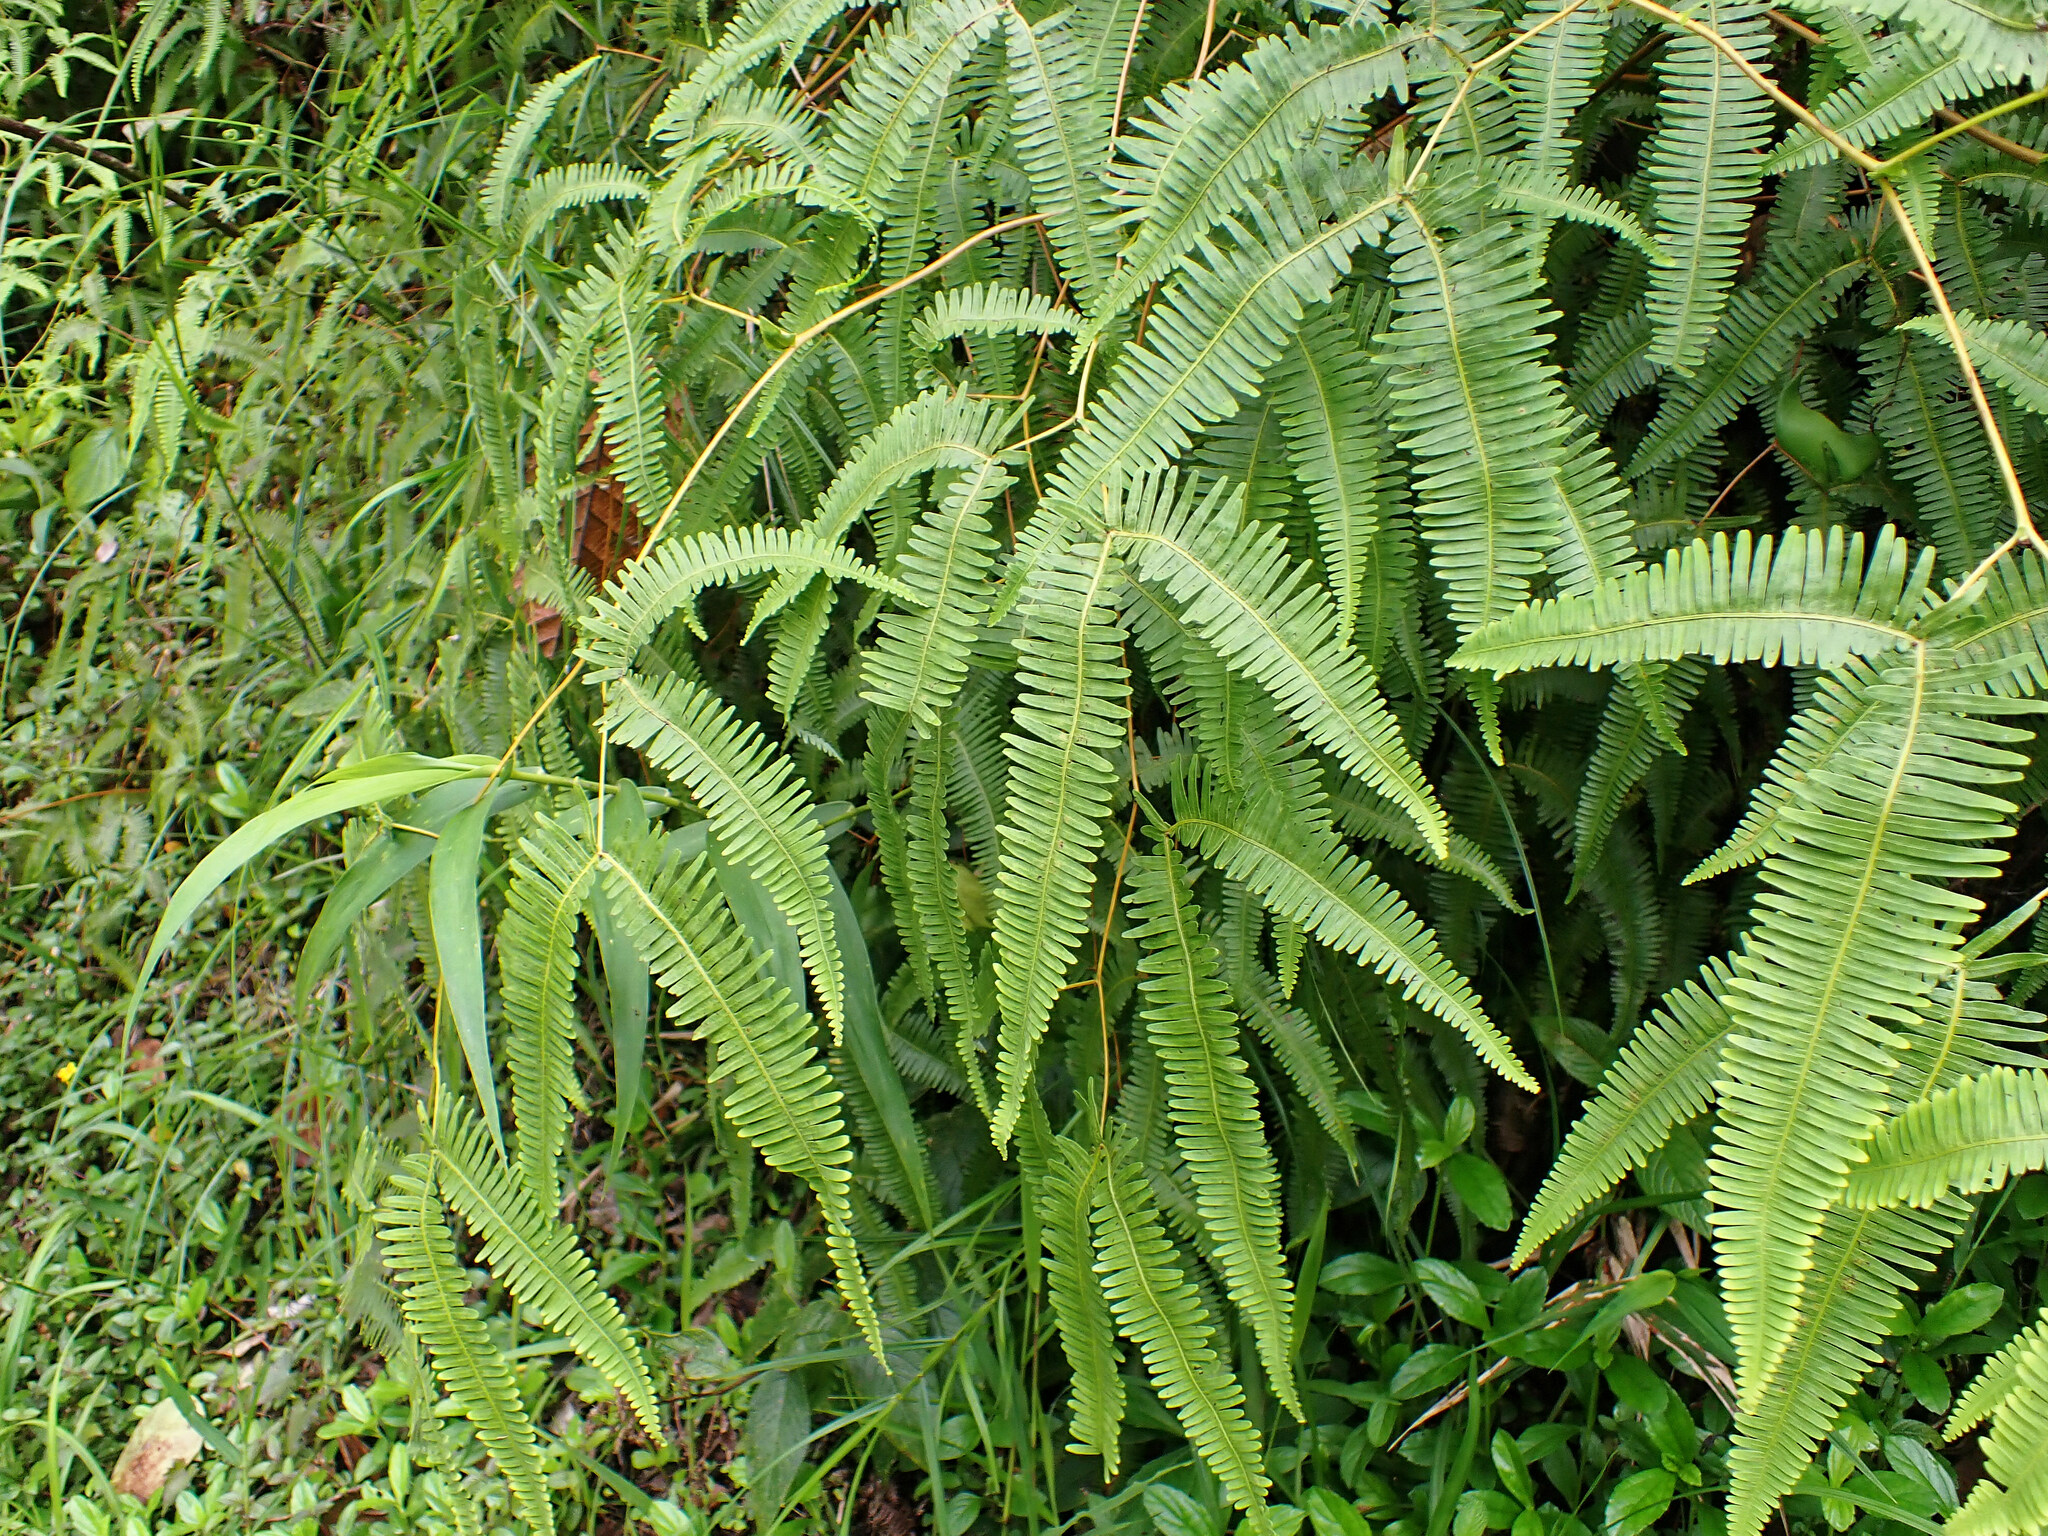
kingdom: Plantae
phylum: Tracheophyta
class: Polypodiopsida
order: Gleicheniales
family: Gleicheniaceae
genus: Gleichenella
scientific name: Gleichenella pectinata
